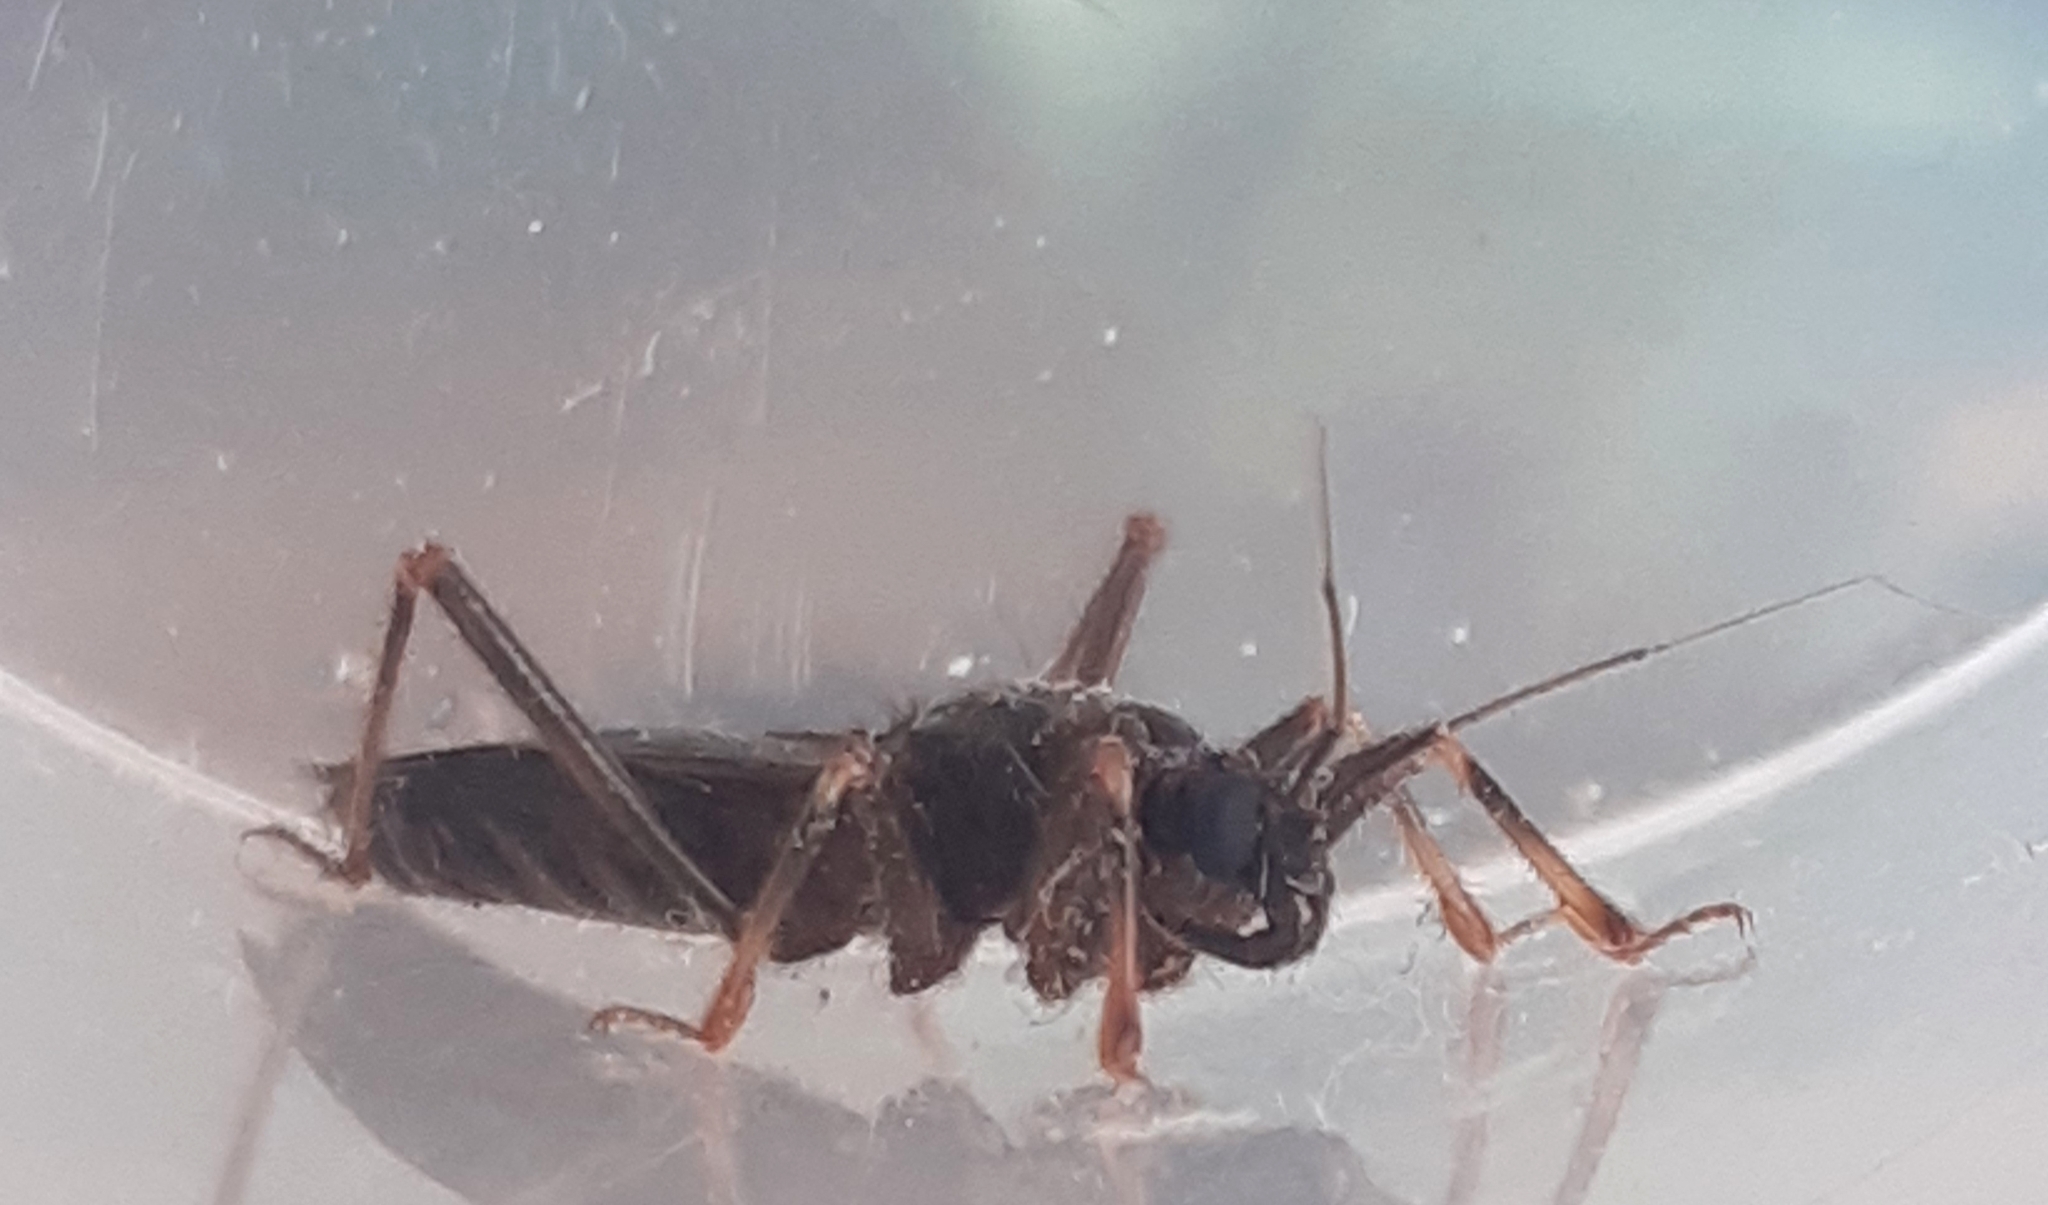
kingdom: Animalia
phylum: Arthropoda
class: Insecta
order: Hemiptera
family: Reduviidae
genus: Reduvius
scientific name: Reduvius personatus
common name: Masked hunter
